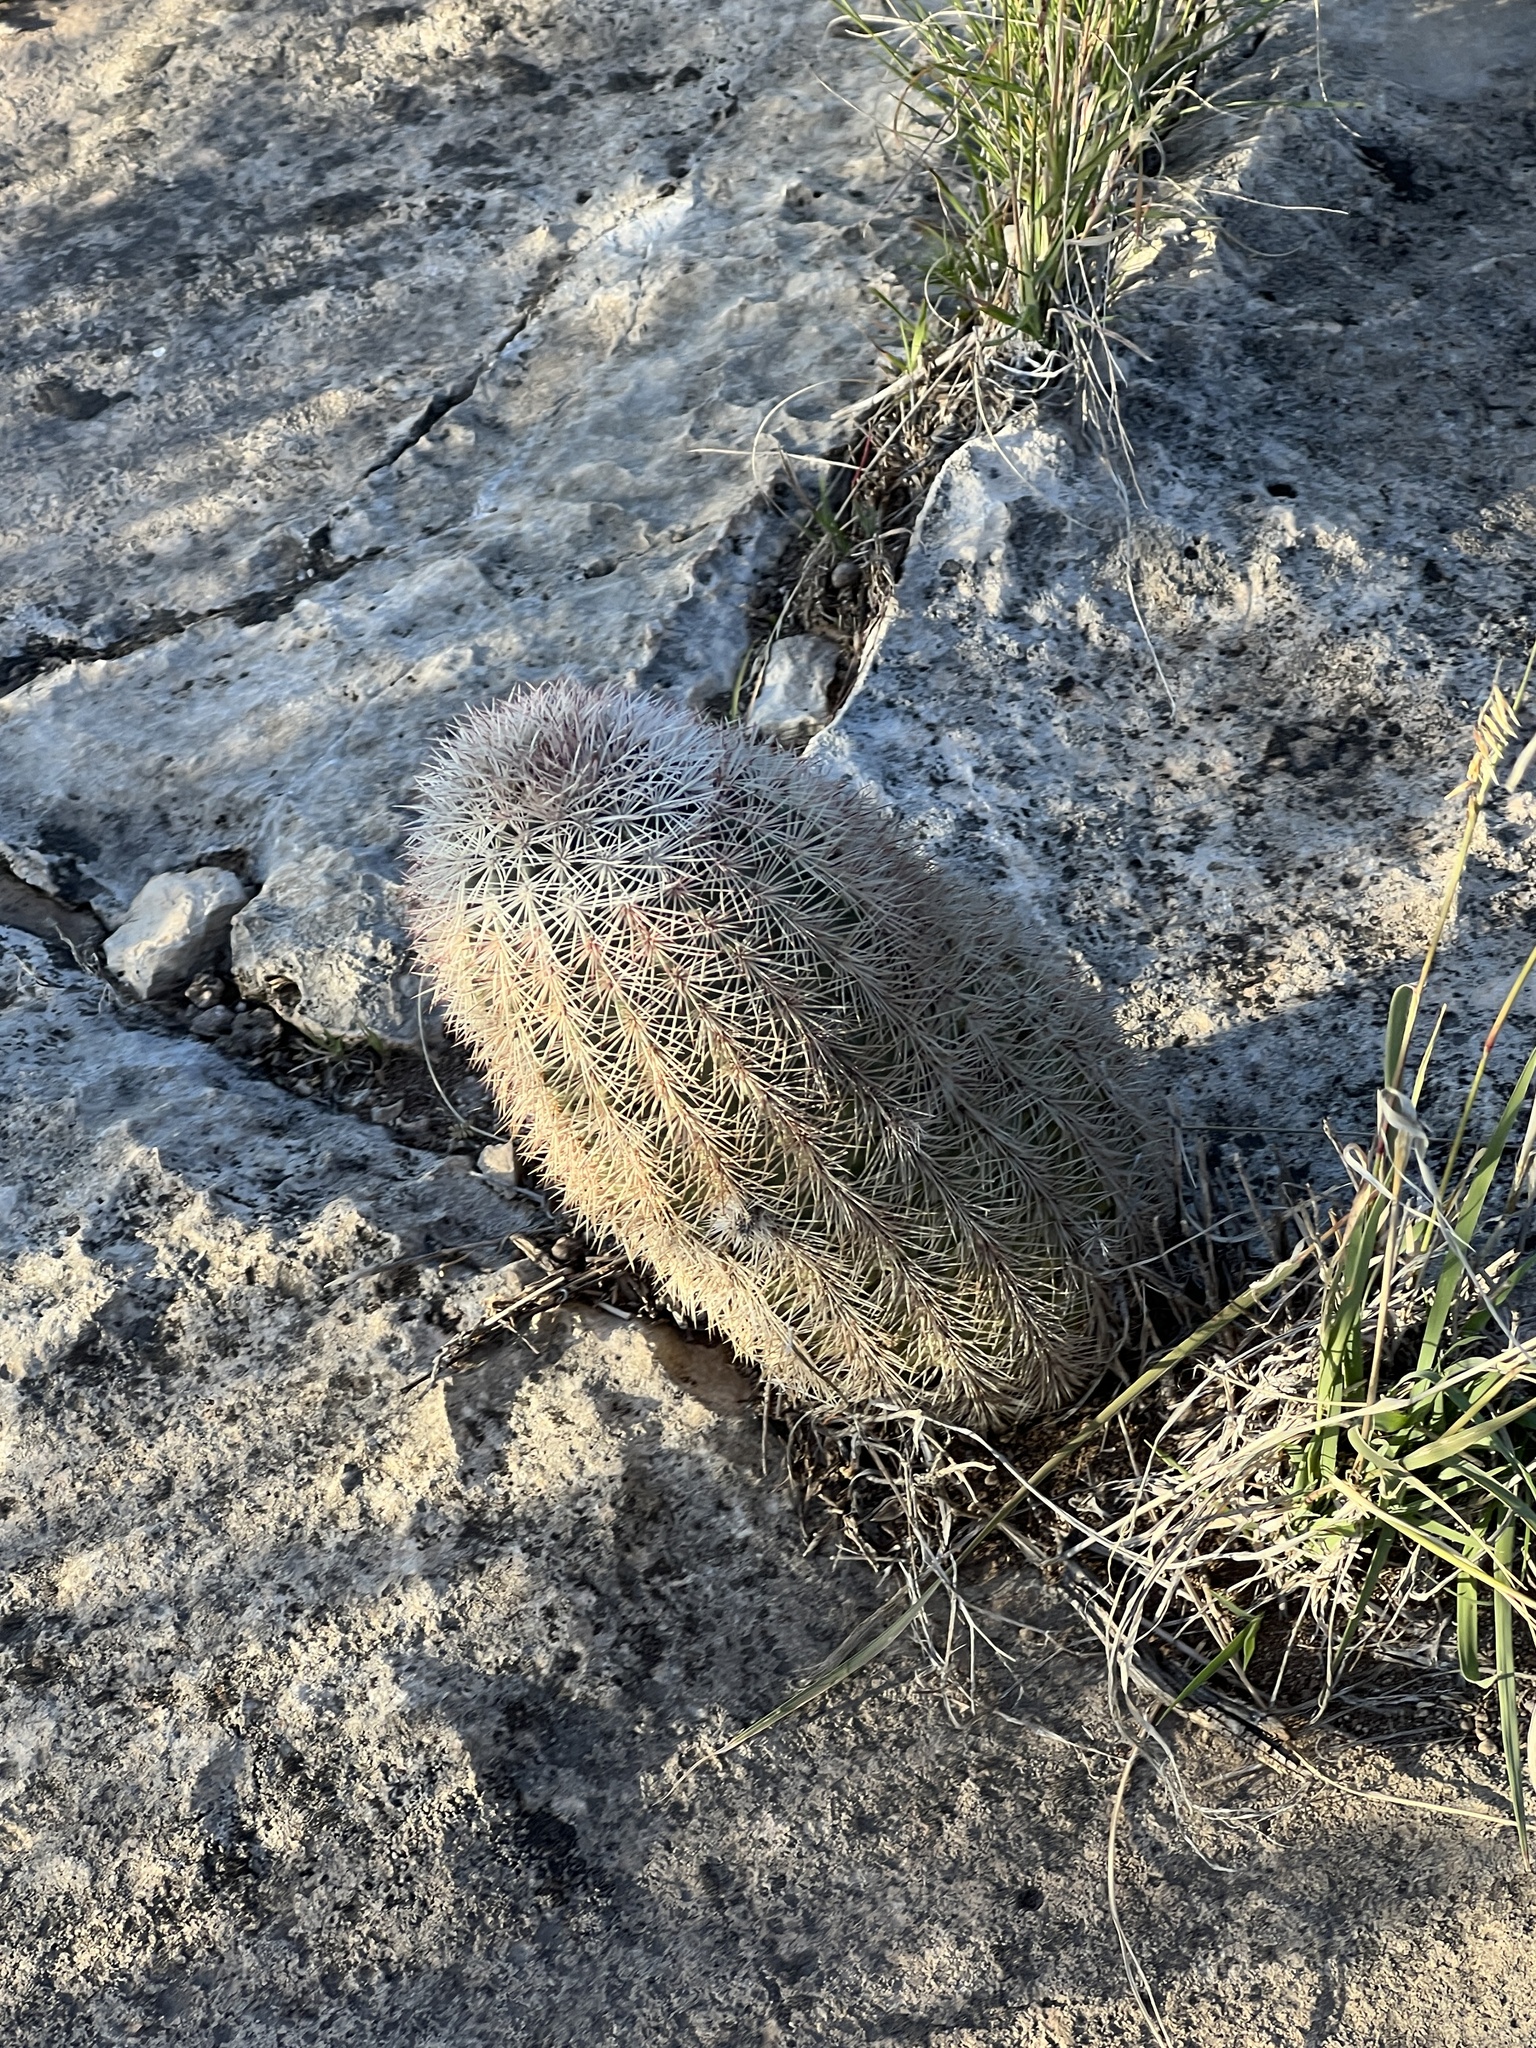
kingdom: Plantae
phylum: Tracheophyta
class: Magnoliopsida
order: Caryophyllales
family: Cactaceae
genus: Echinocereus
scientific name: Echinocereus dasyacanthus
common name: Spiny hedgehog cactus
